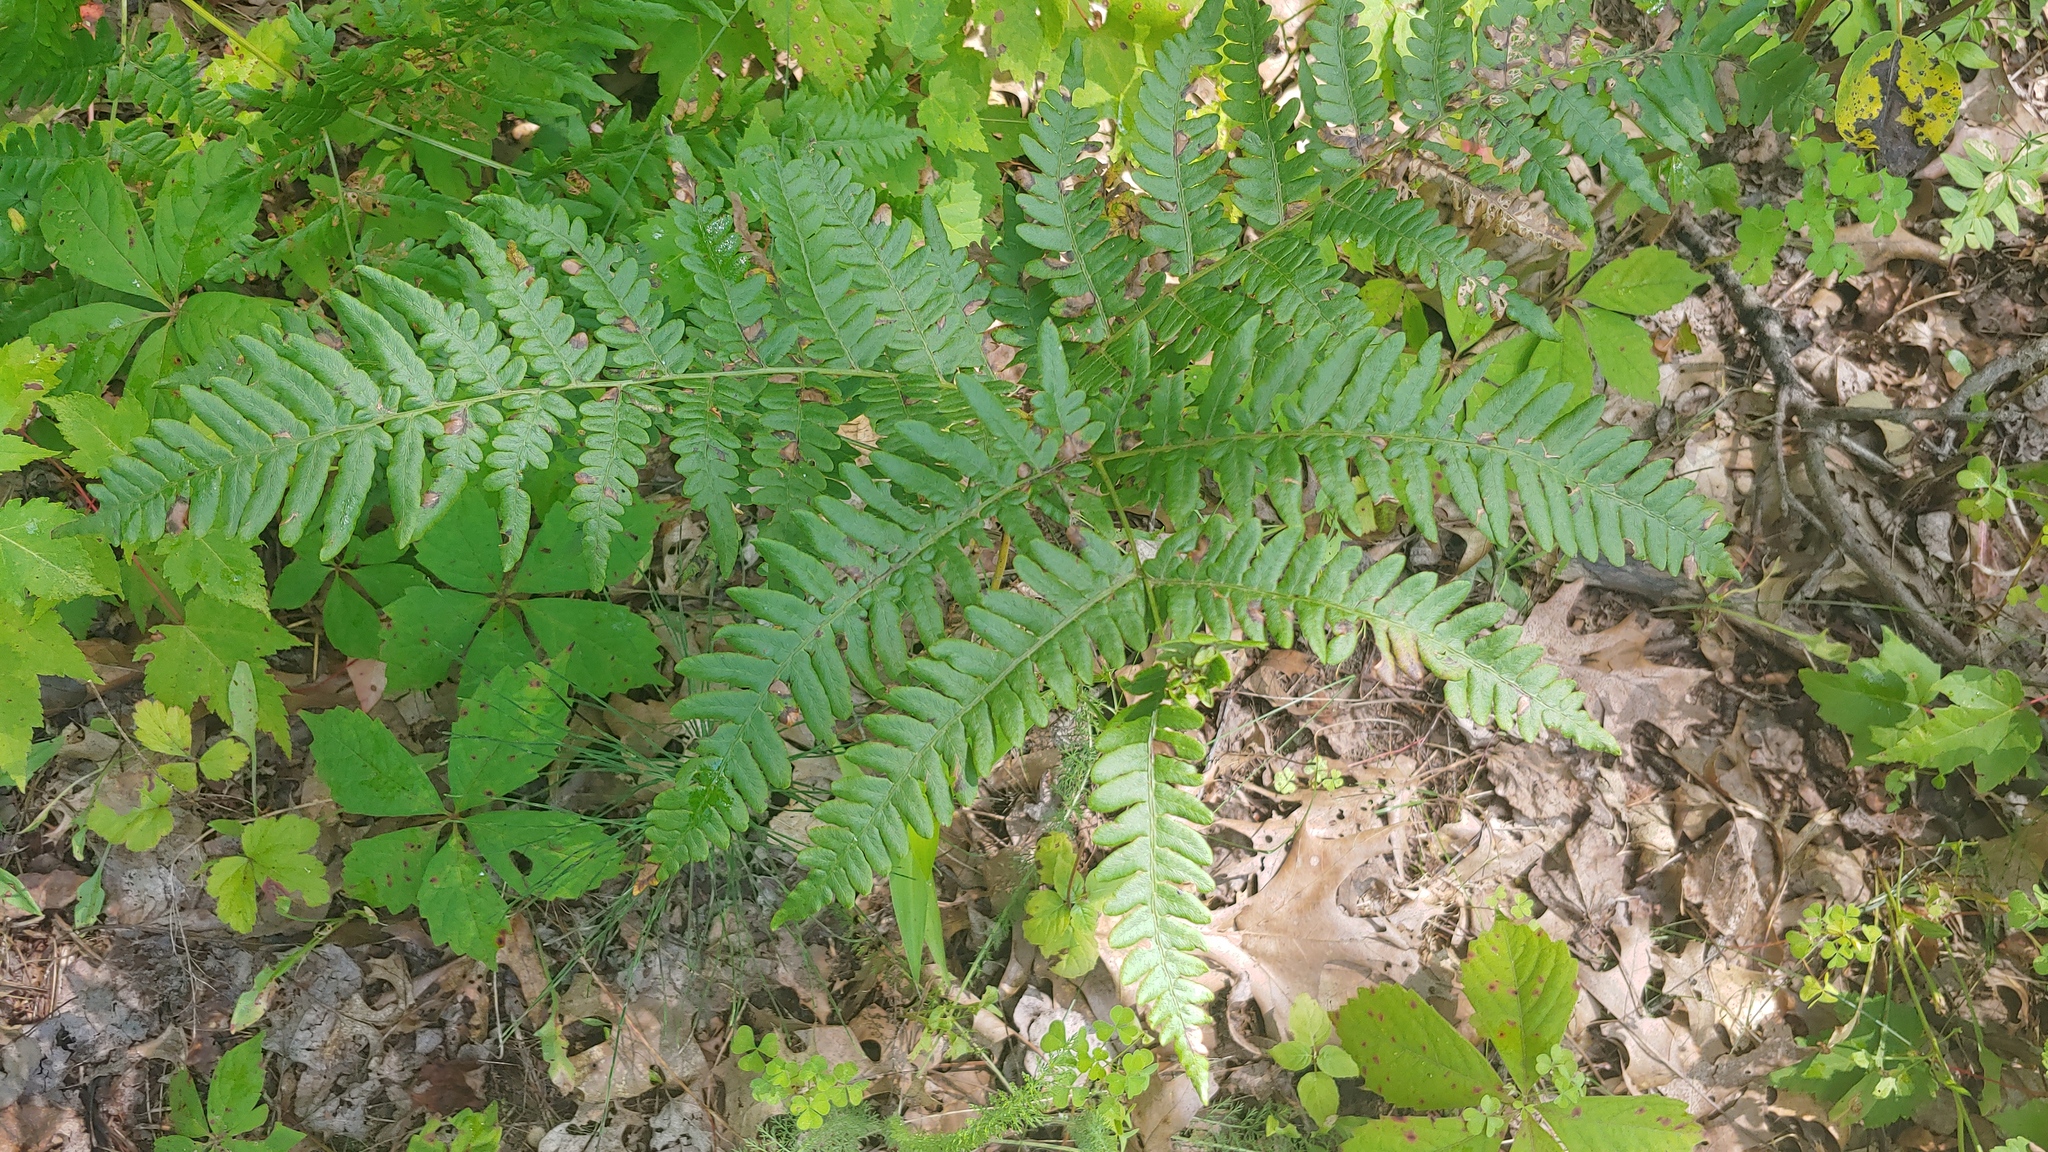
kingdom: Plantae
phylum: Tracheophyta
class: Polypodiopsida
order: Polypodiales
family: Dennstaedtiaceae
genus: Pteridium
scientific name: Pteridium aquilinum
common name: Bracken
